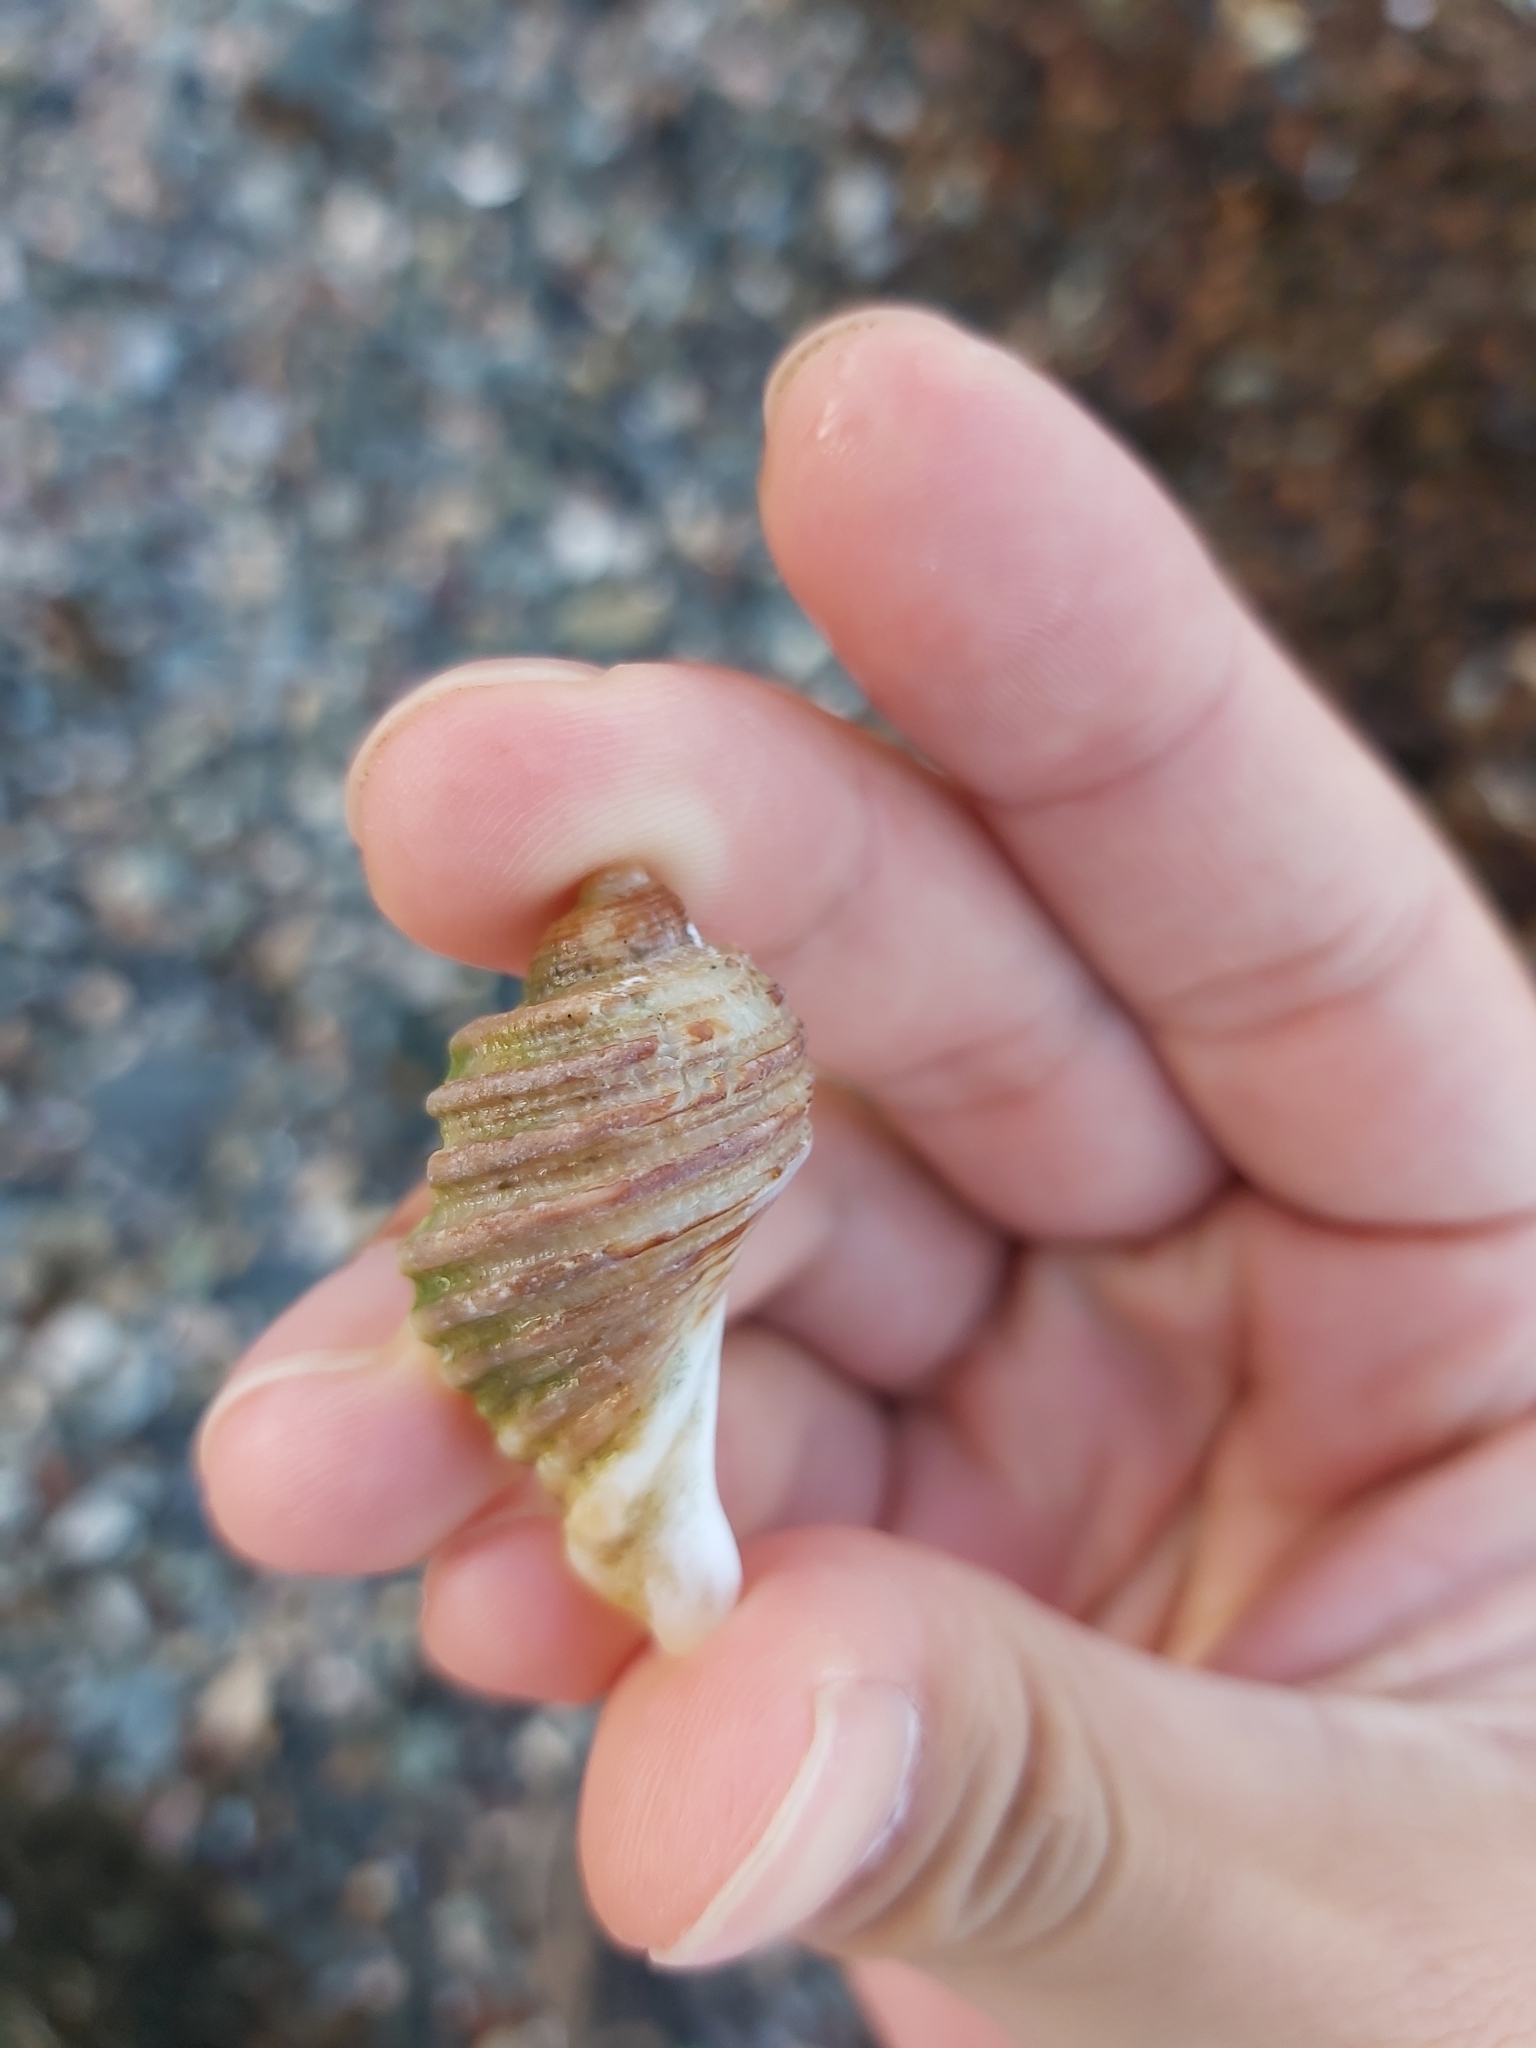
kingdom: Animalia
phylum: Mollusca
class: Gastropoda
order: Neogastropoda
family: Muricidae
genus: Dicathais
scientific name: Dicathais orbita
